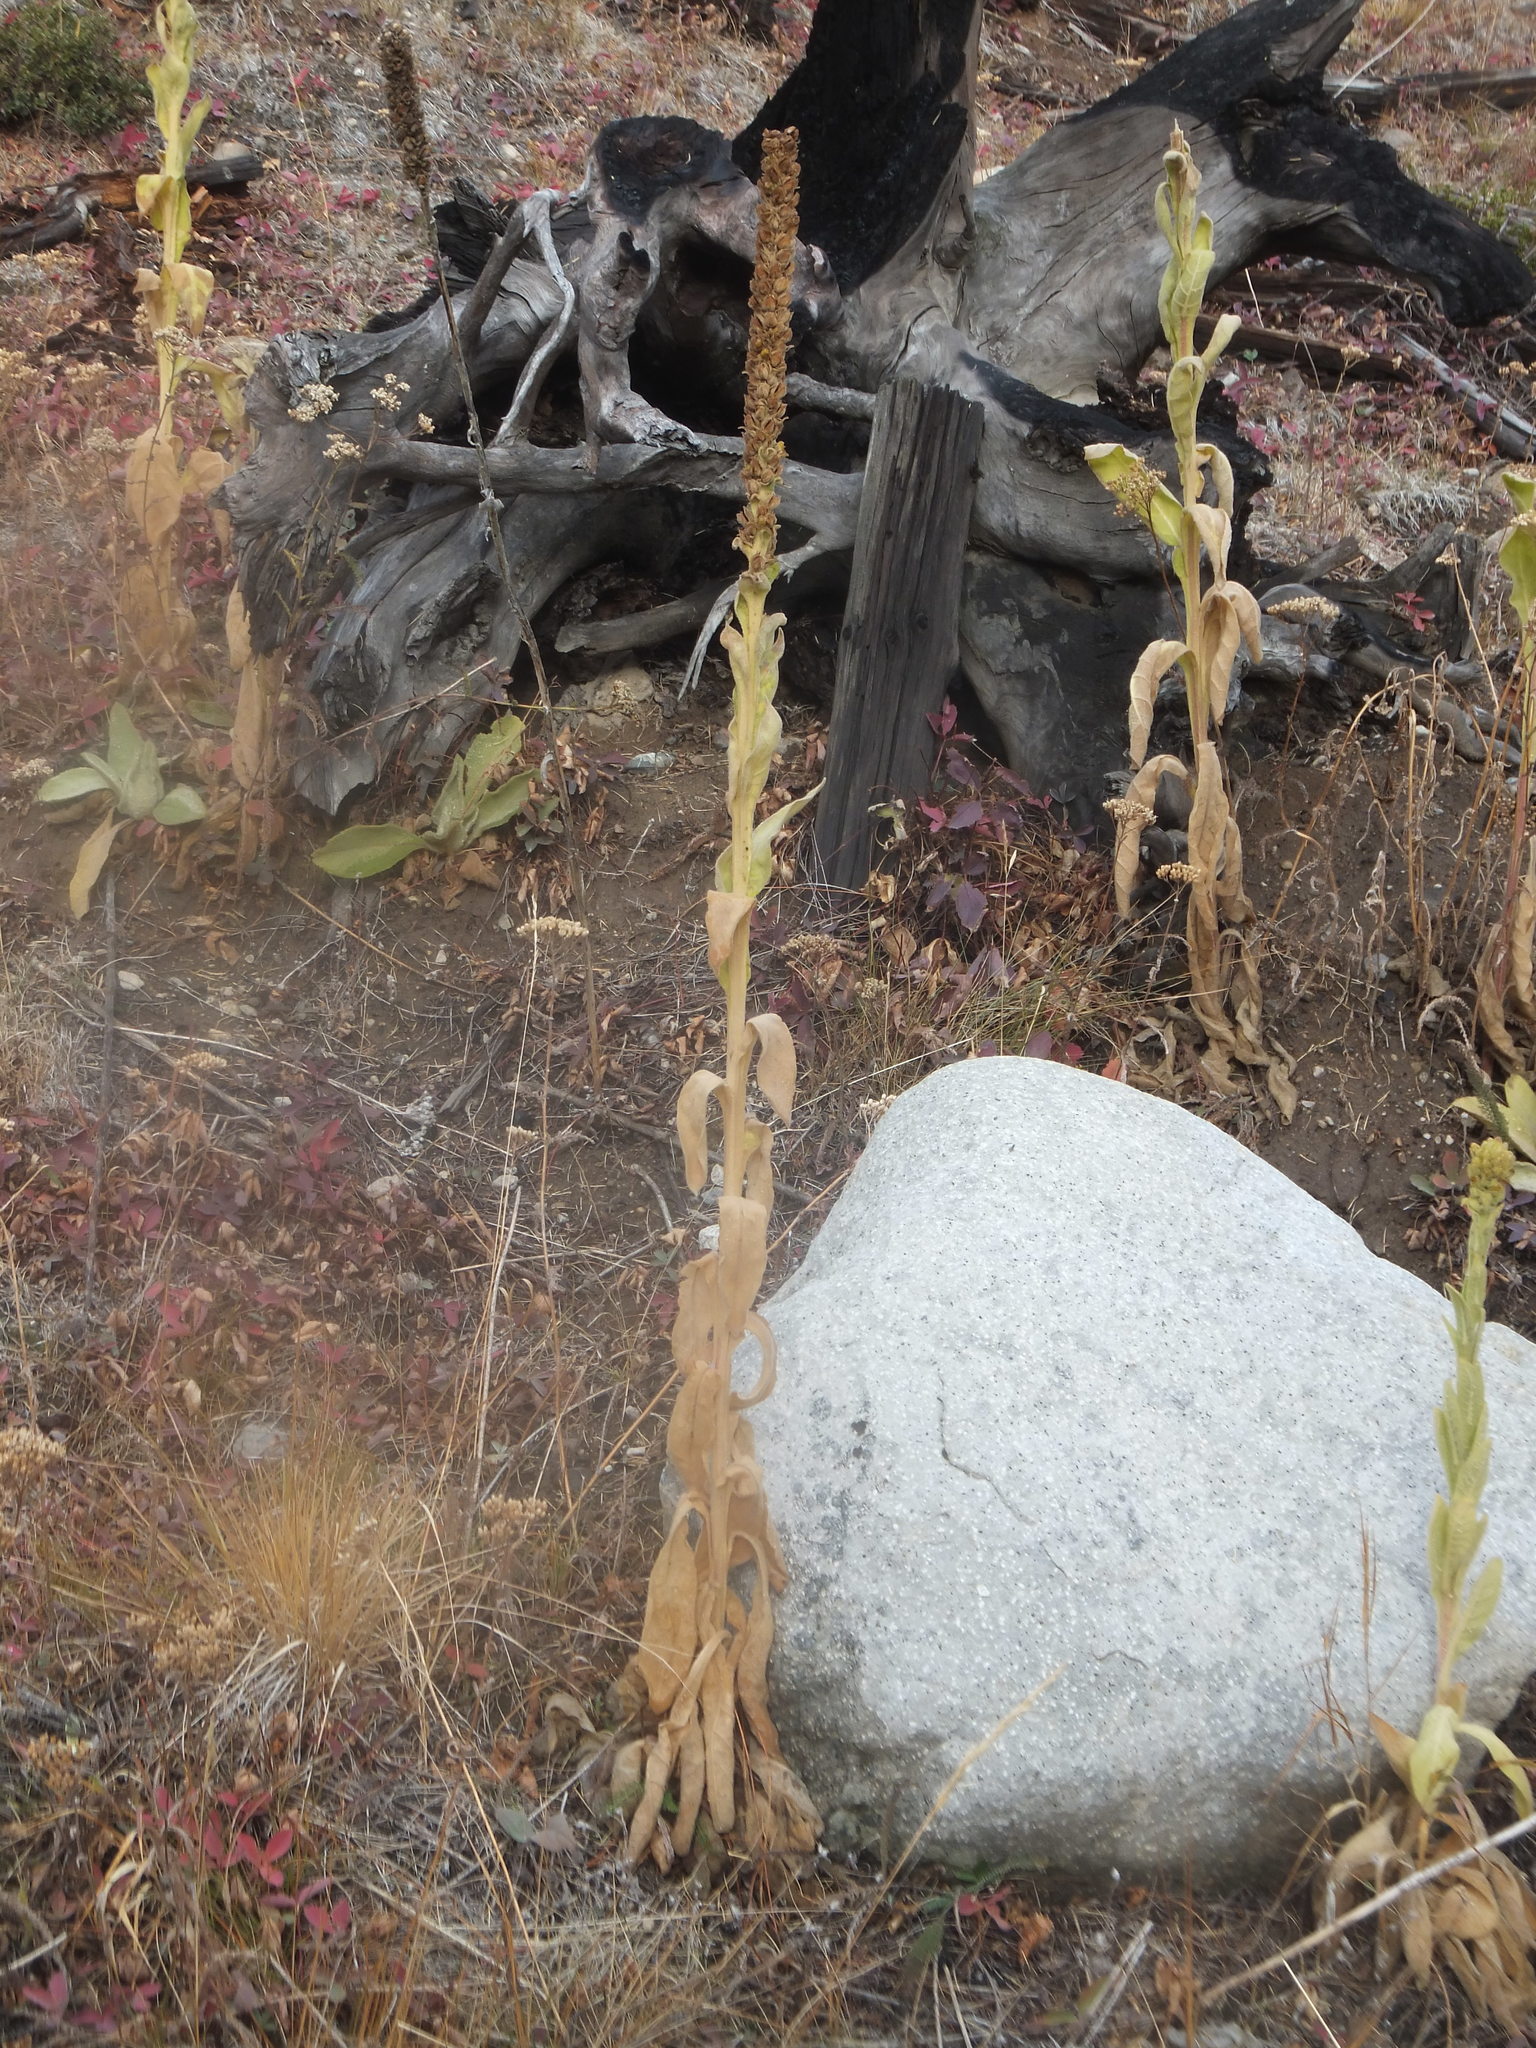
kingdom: Plantae
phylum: Tracheophyta
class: Magnoliopsida
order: Lamiales
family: Scrophulariaceae
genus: Verbascum
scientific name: Verbascum thapsus
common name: Common mullein
